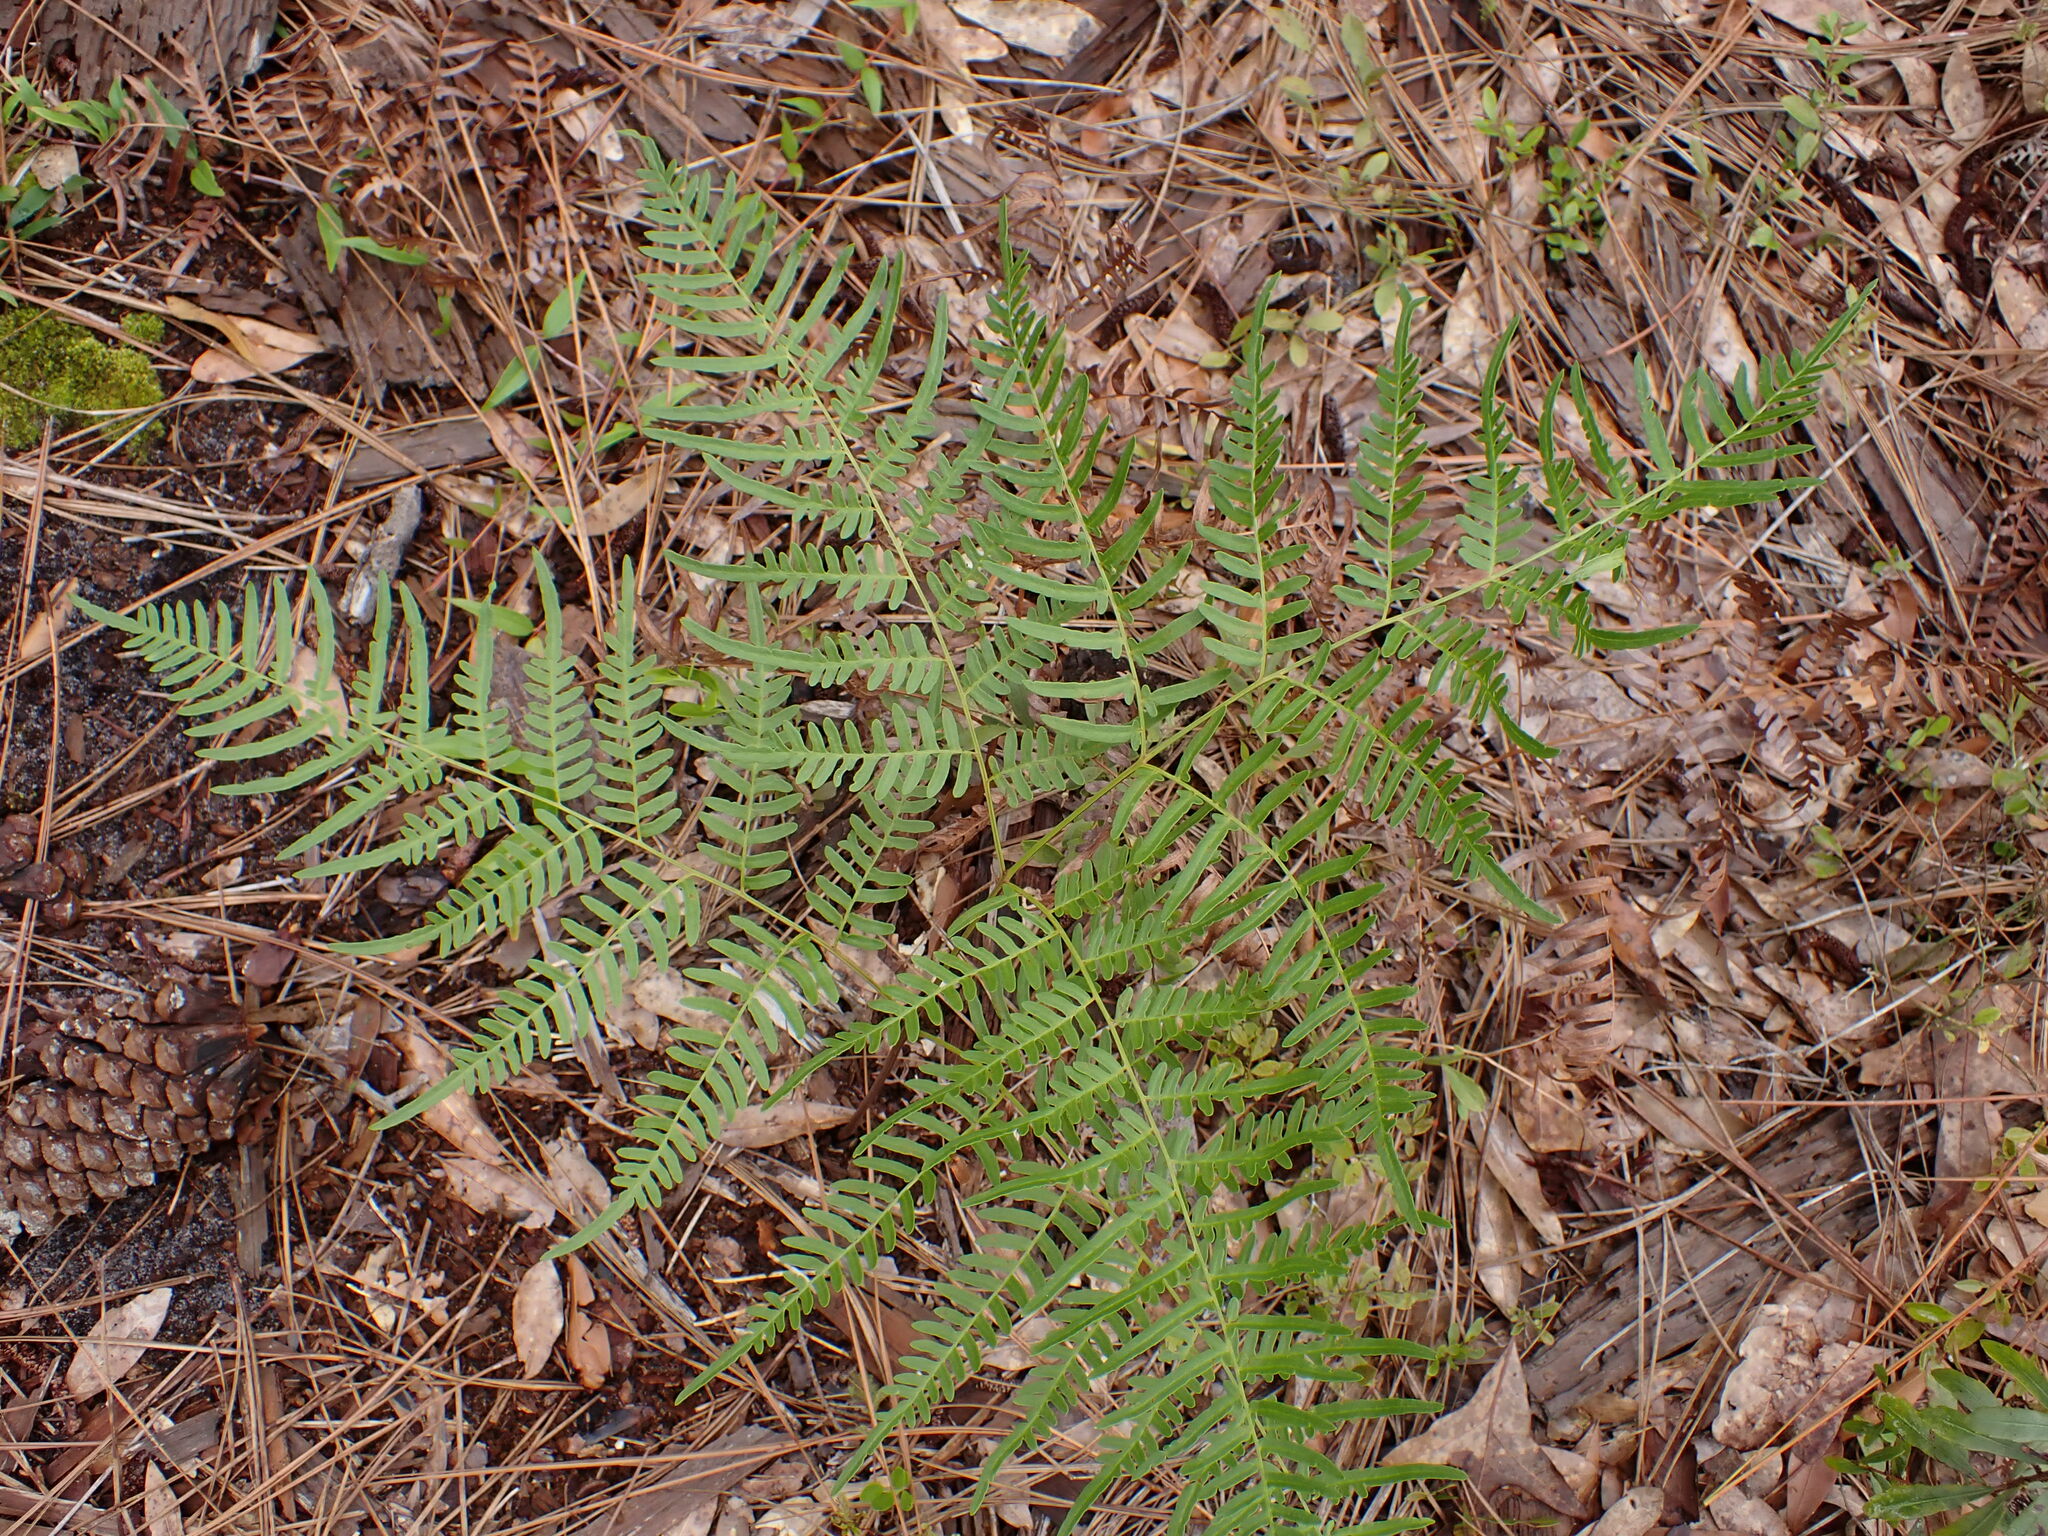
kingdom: Plantae
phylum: Tracheophyta
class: Polypodiopsida
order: Polypodiales
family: Dennstaedtiaceae
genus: Pteridium
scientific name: Pteridium aquilinum
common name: Bracken
